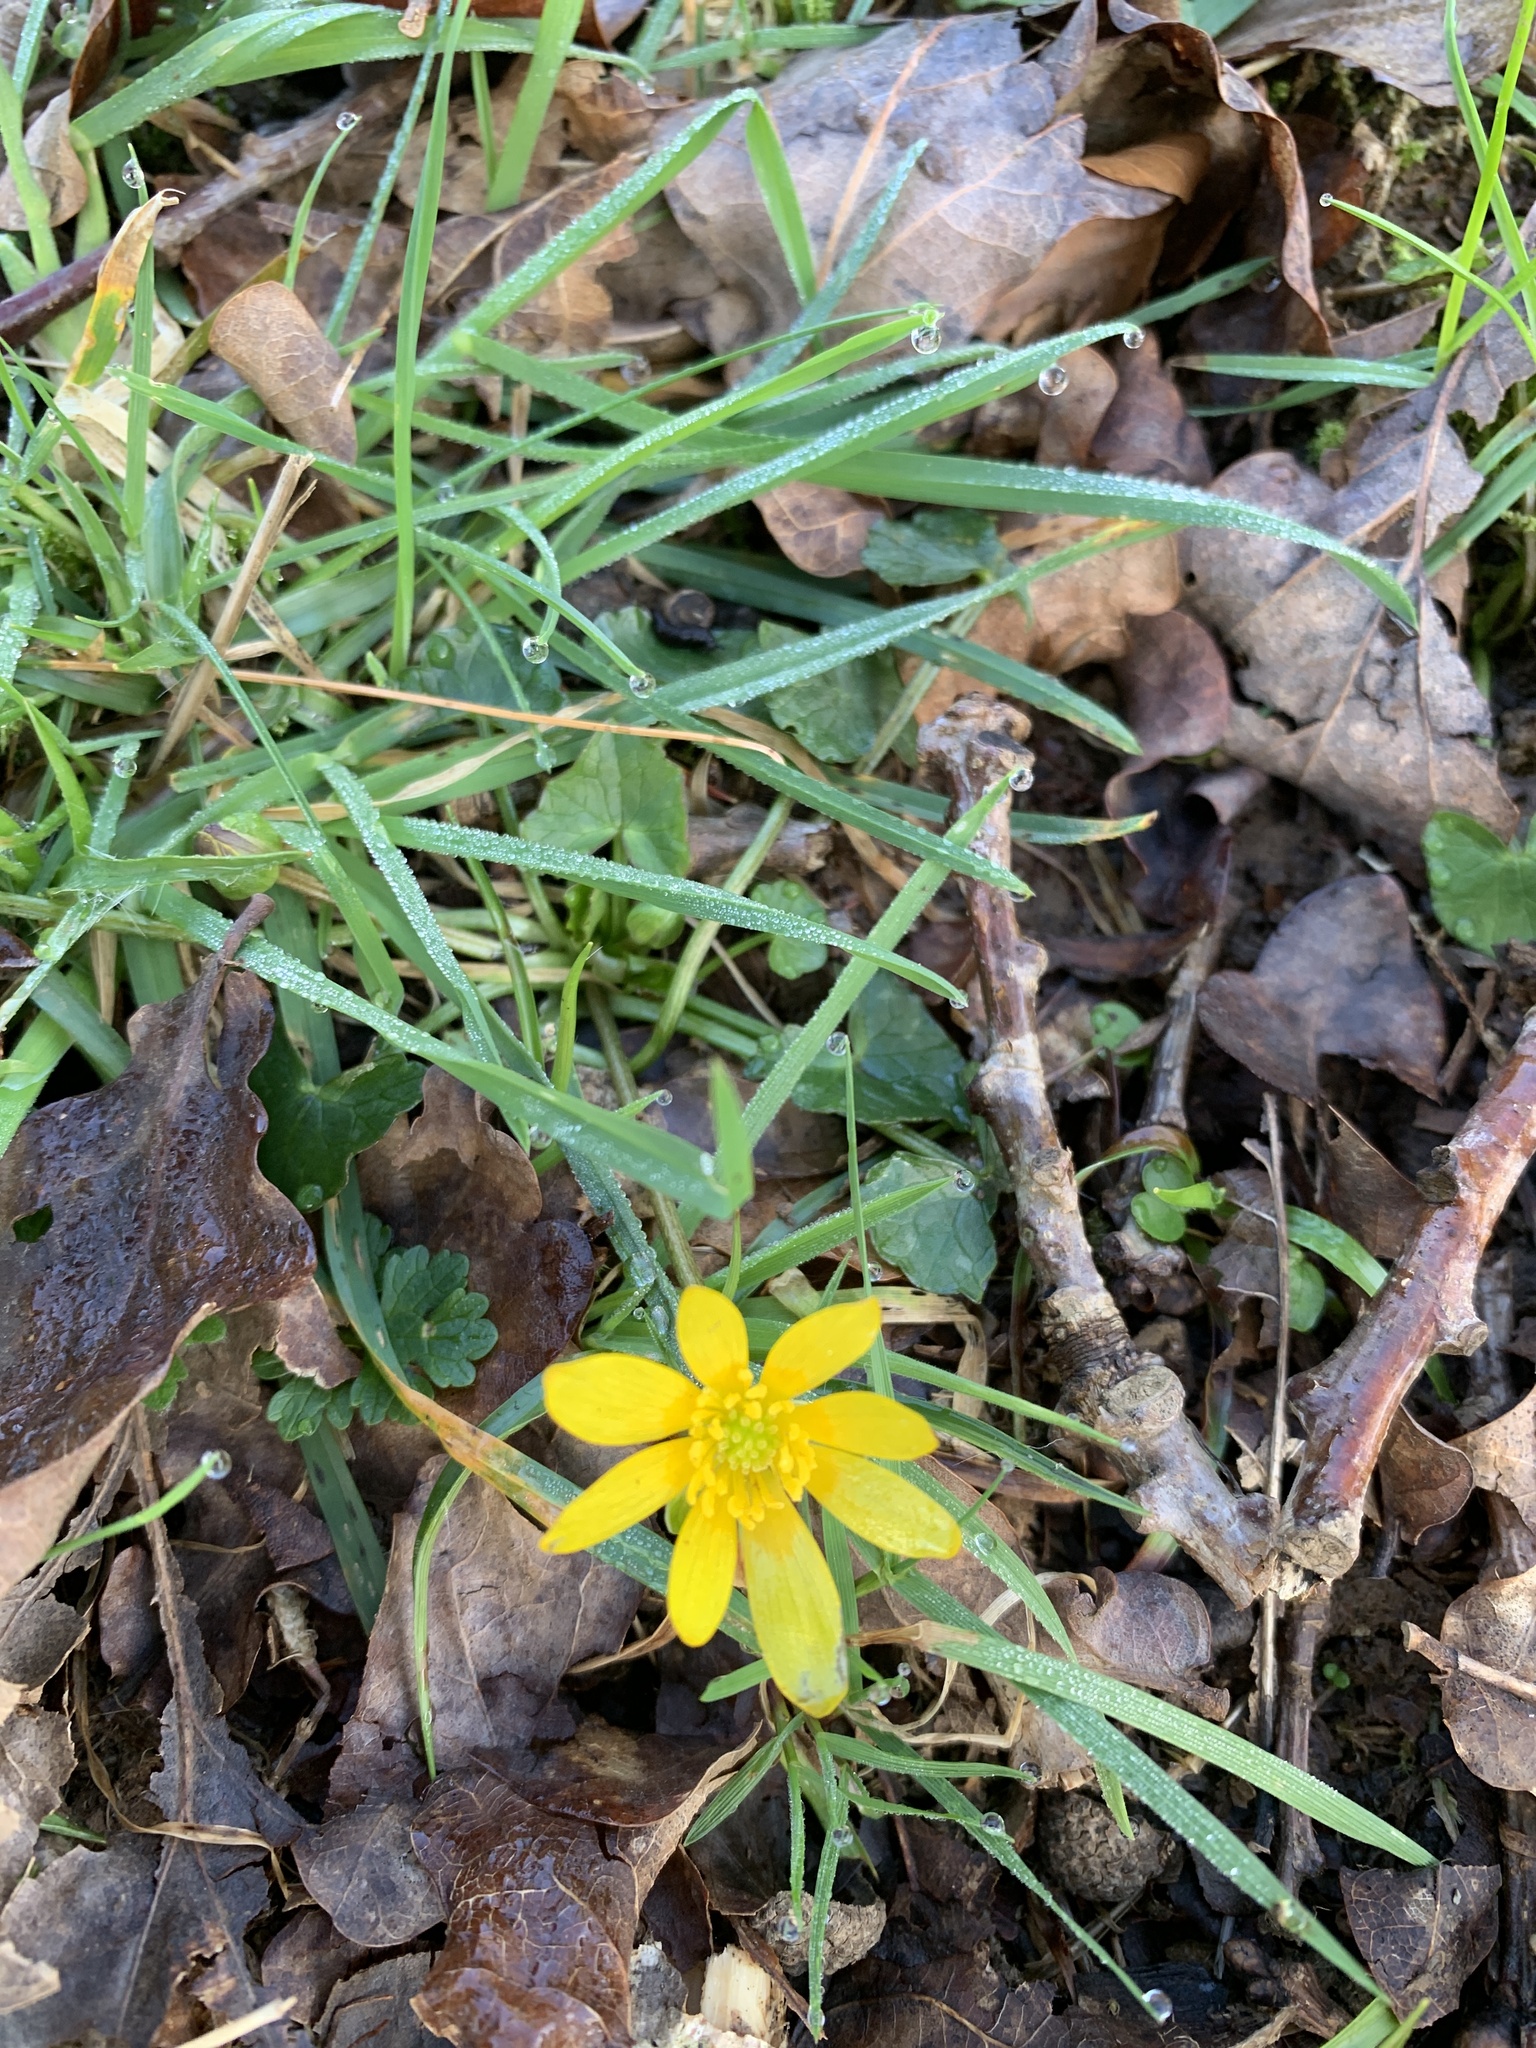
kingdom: Plantae
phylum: Tracheophyta
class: Magnoliopsida
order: Ranunculales
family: Ranunculaceae
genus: Ficaria
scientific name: Ficaria verna
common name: Lesser celandine
